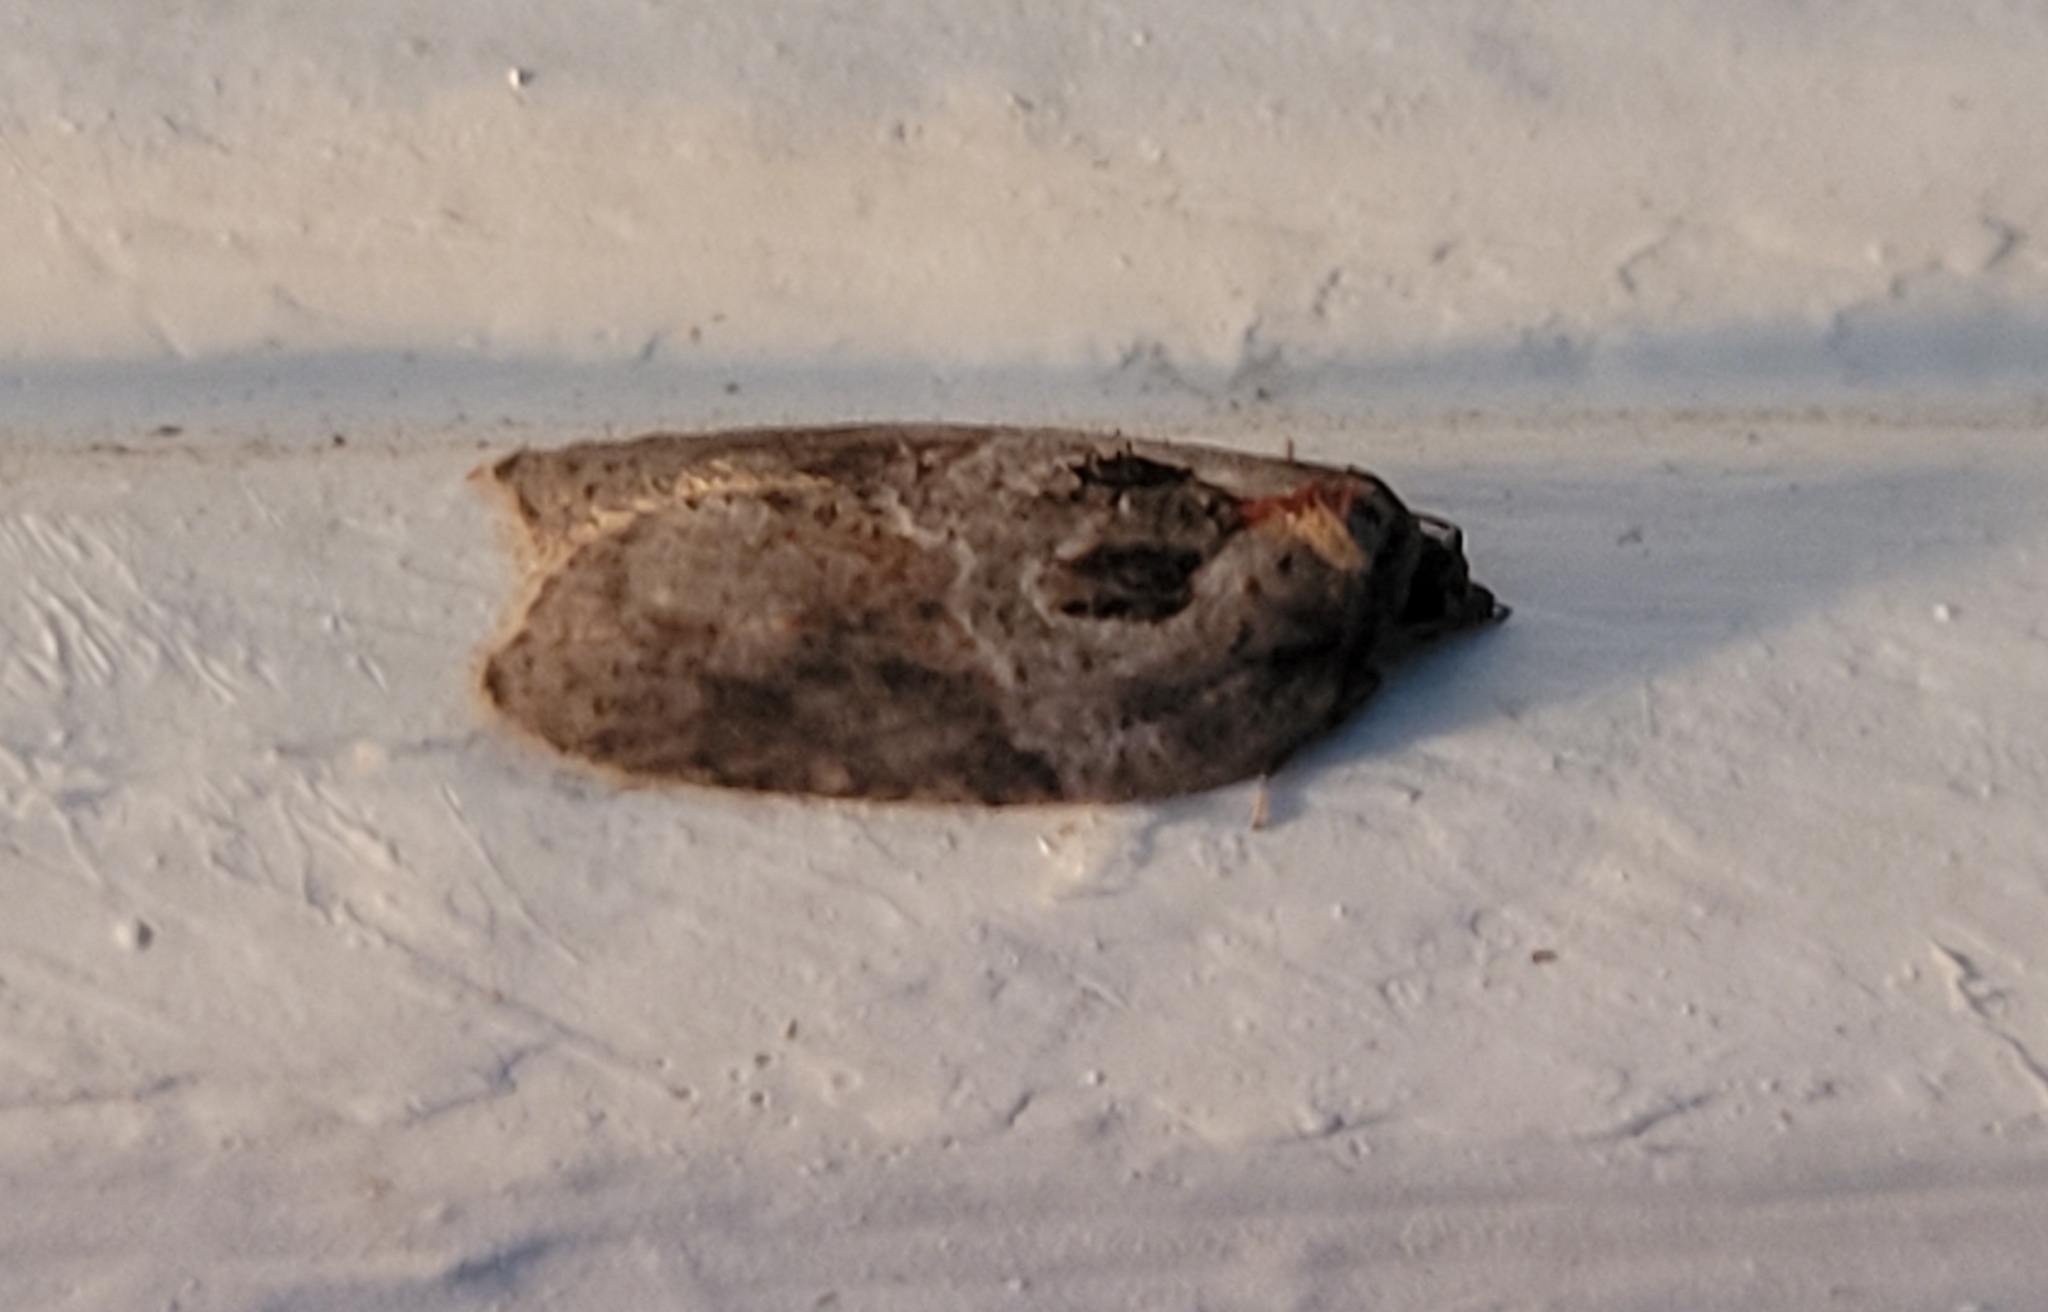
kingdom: Animalia
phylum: Arthropoda
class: Insecta
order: Lepidoptera
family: Tortricidae
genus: Acleris
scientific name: Acleris robinsoniana
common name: Robinson's acleris moth
